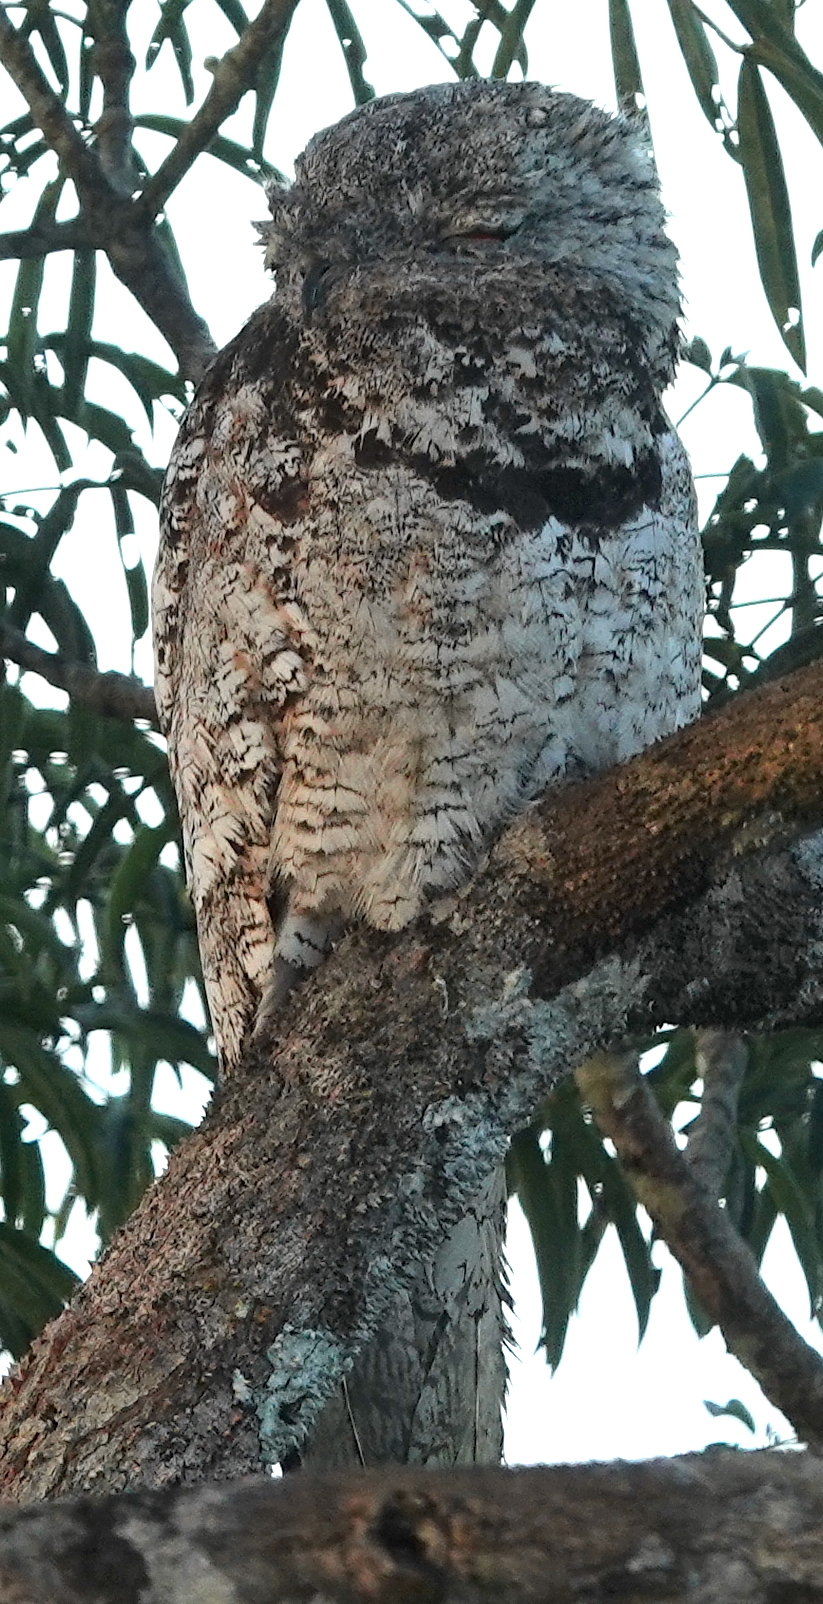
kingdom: Animalia
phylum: Chordata
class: Aves
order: Nyctibiiformes
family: Nyctibiidae
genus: Nyctibius
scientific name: Nyctibius grandis
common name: Great potoo
